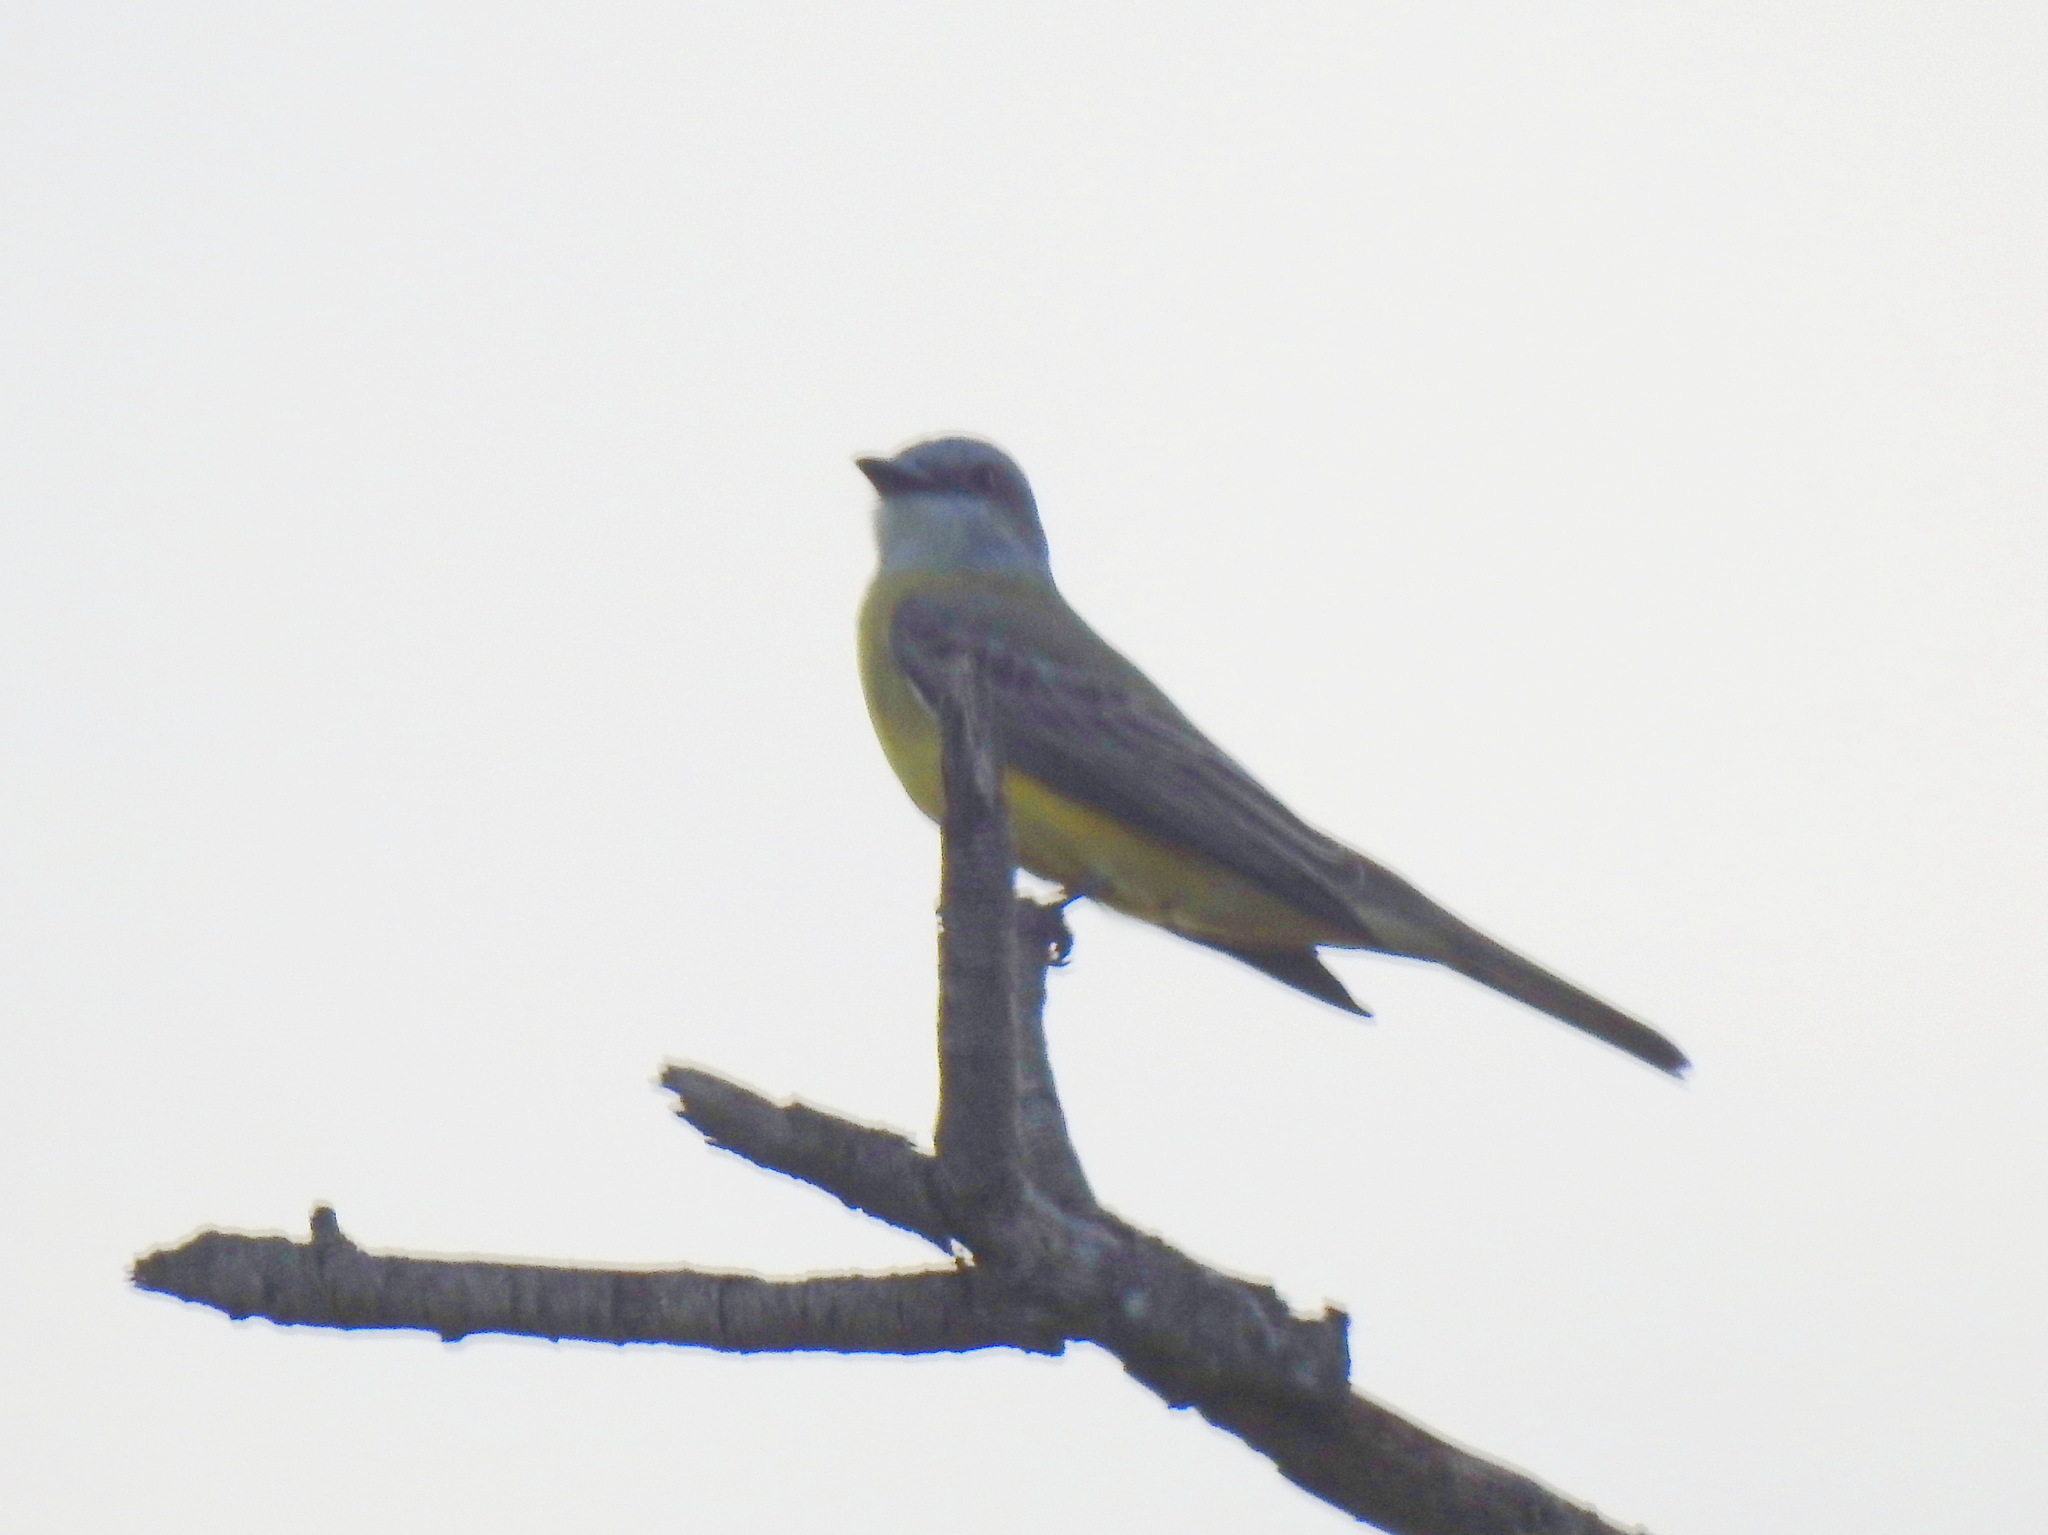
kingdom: Animalia
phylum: Chordata
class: Aves
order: Passeriformes
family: Tyrannidae
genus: Tyrannus
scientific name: Tyrannus
